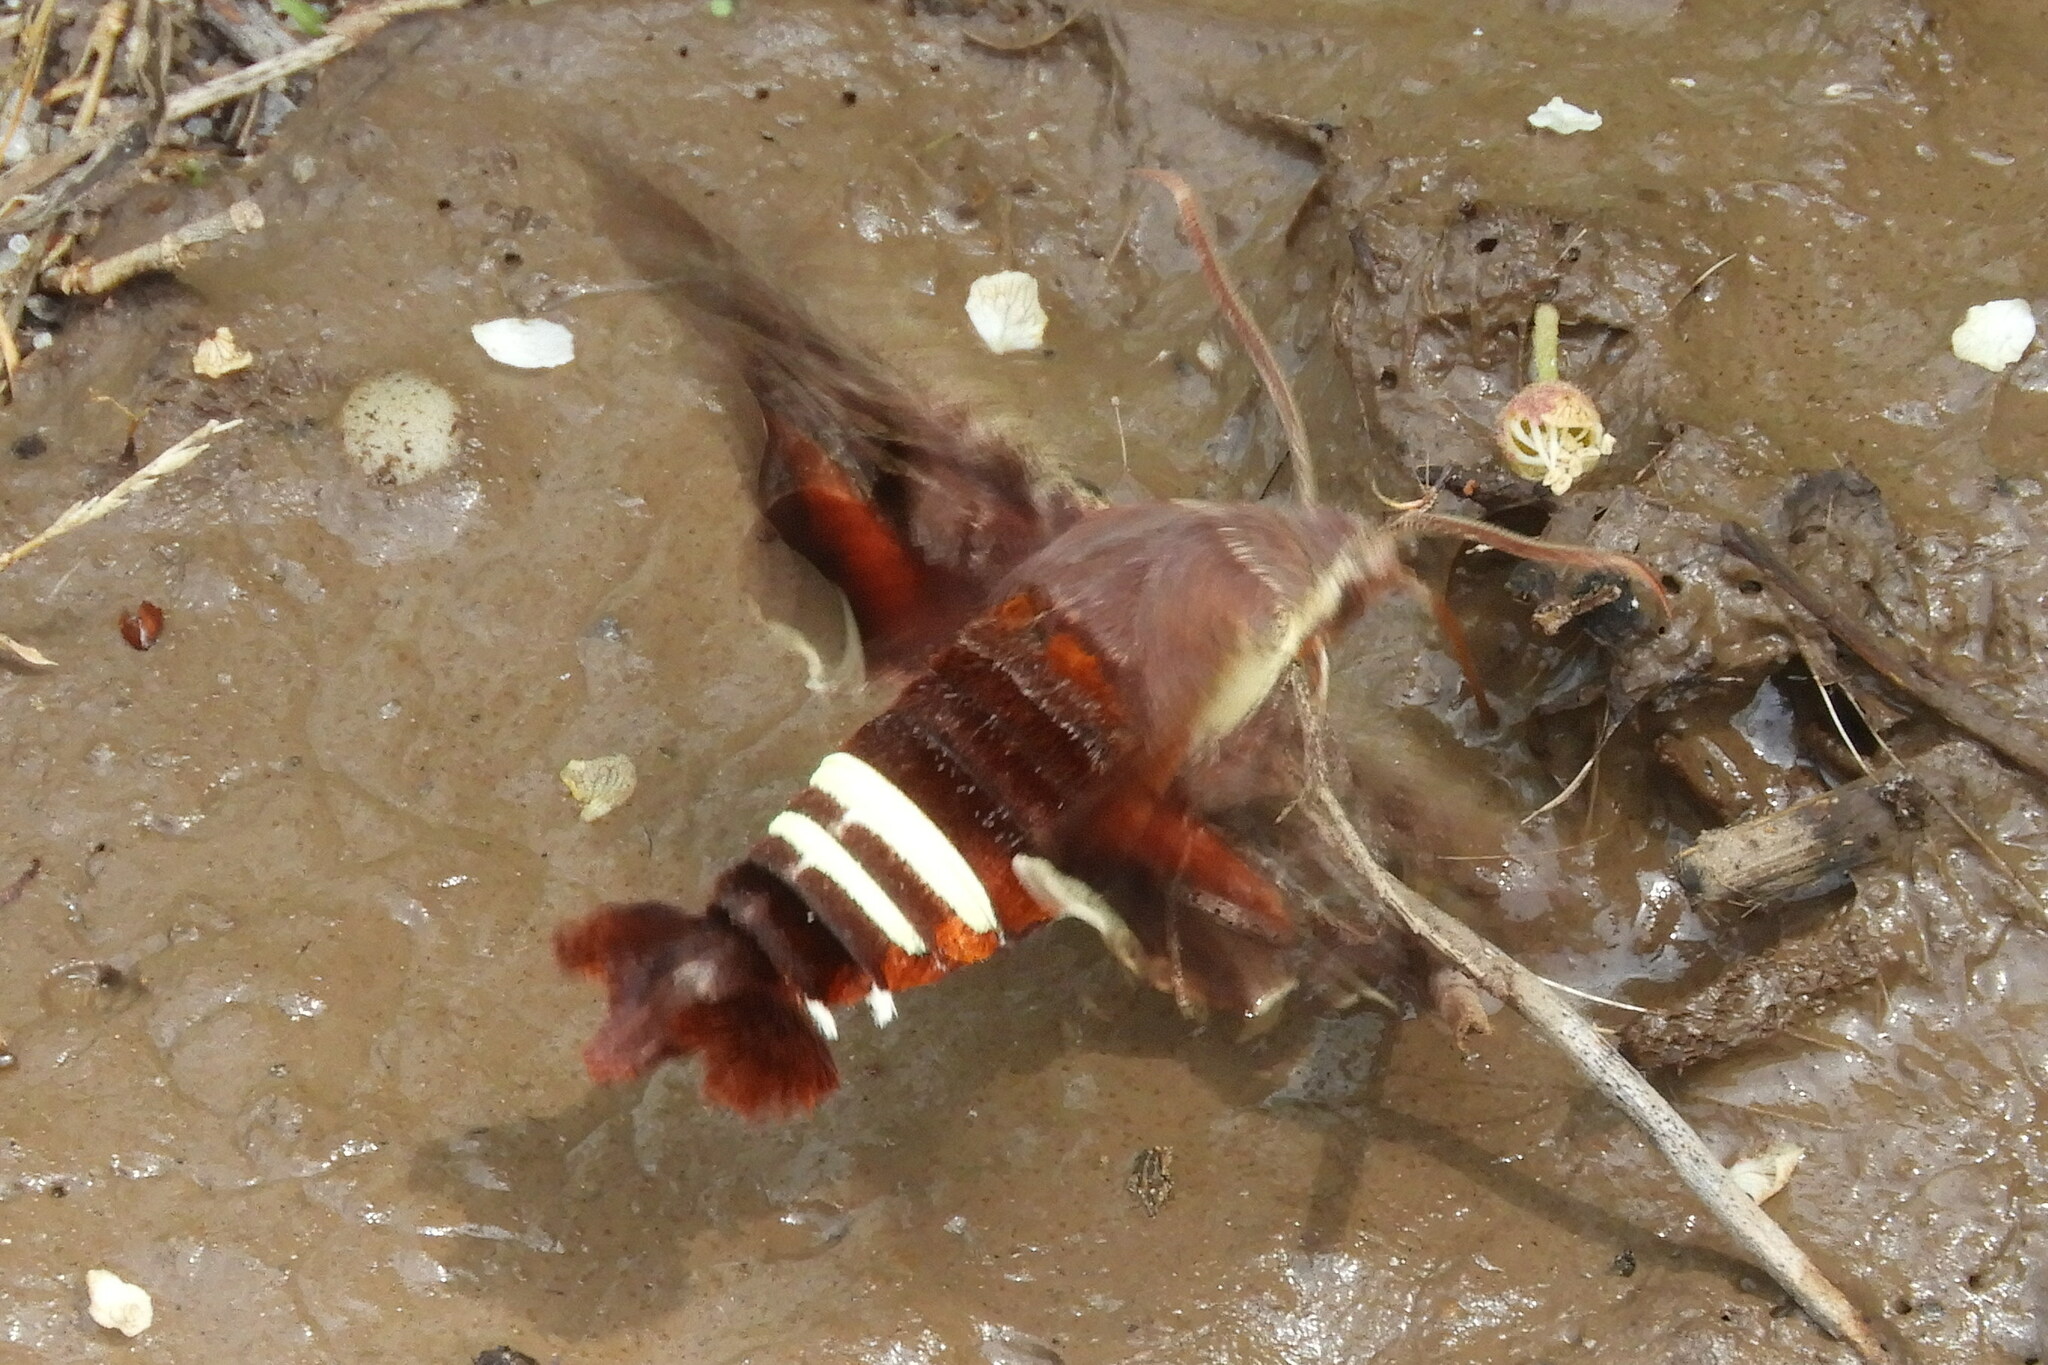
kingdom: Animalia
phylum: Arthropoda
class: Insecta
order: Lepidoptera
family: Sphingidae
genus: Amphion
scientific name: Amphion floridensis
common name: Nessus sphinx
